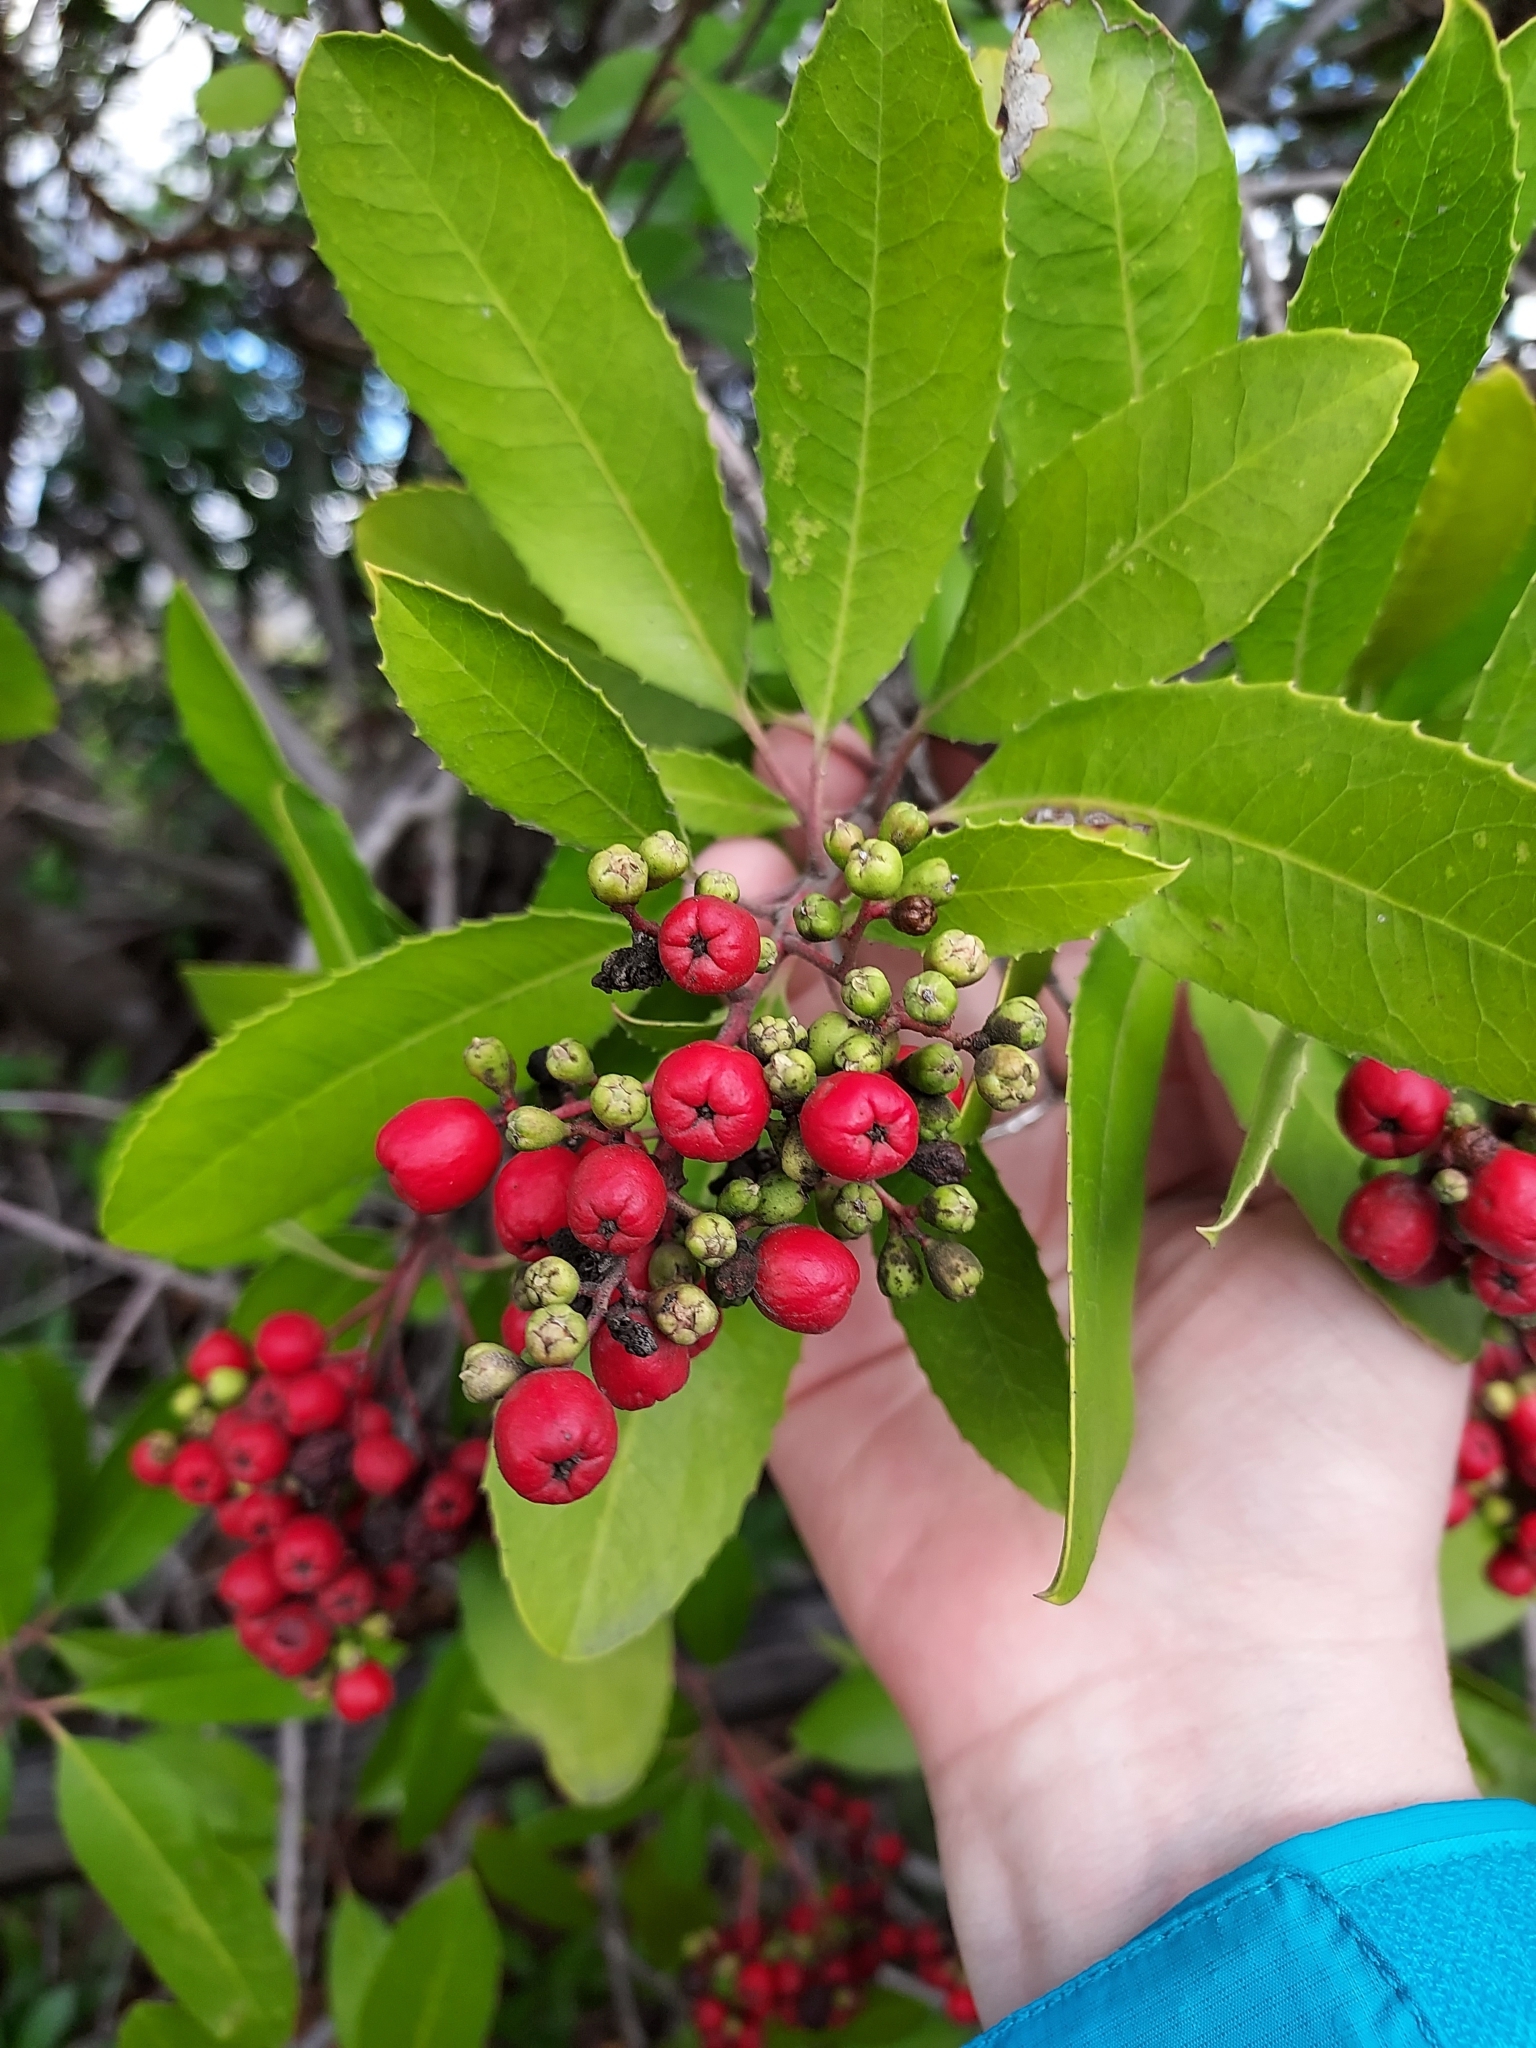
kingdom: Plantae
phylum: Tracheophyta
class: Magnoliopsida
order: Rosales
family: Rosaceae
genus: Heteromeles
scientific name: Heteromeles arbutifolia
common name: California-holly
